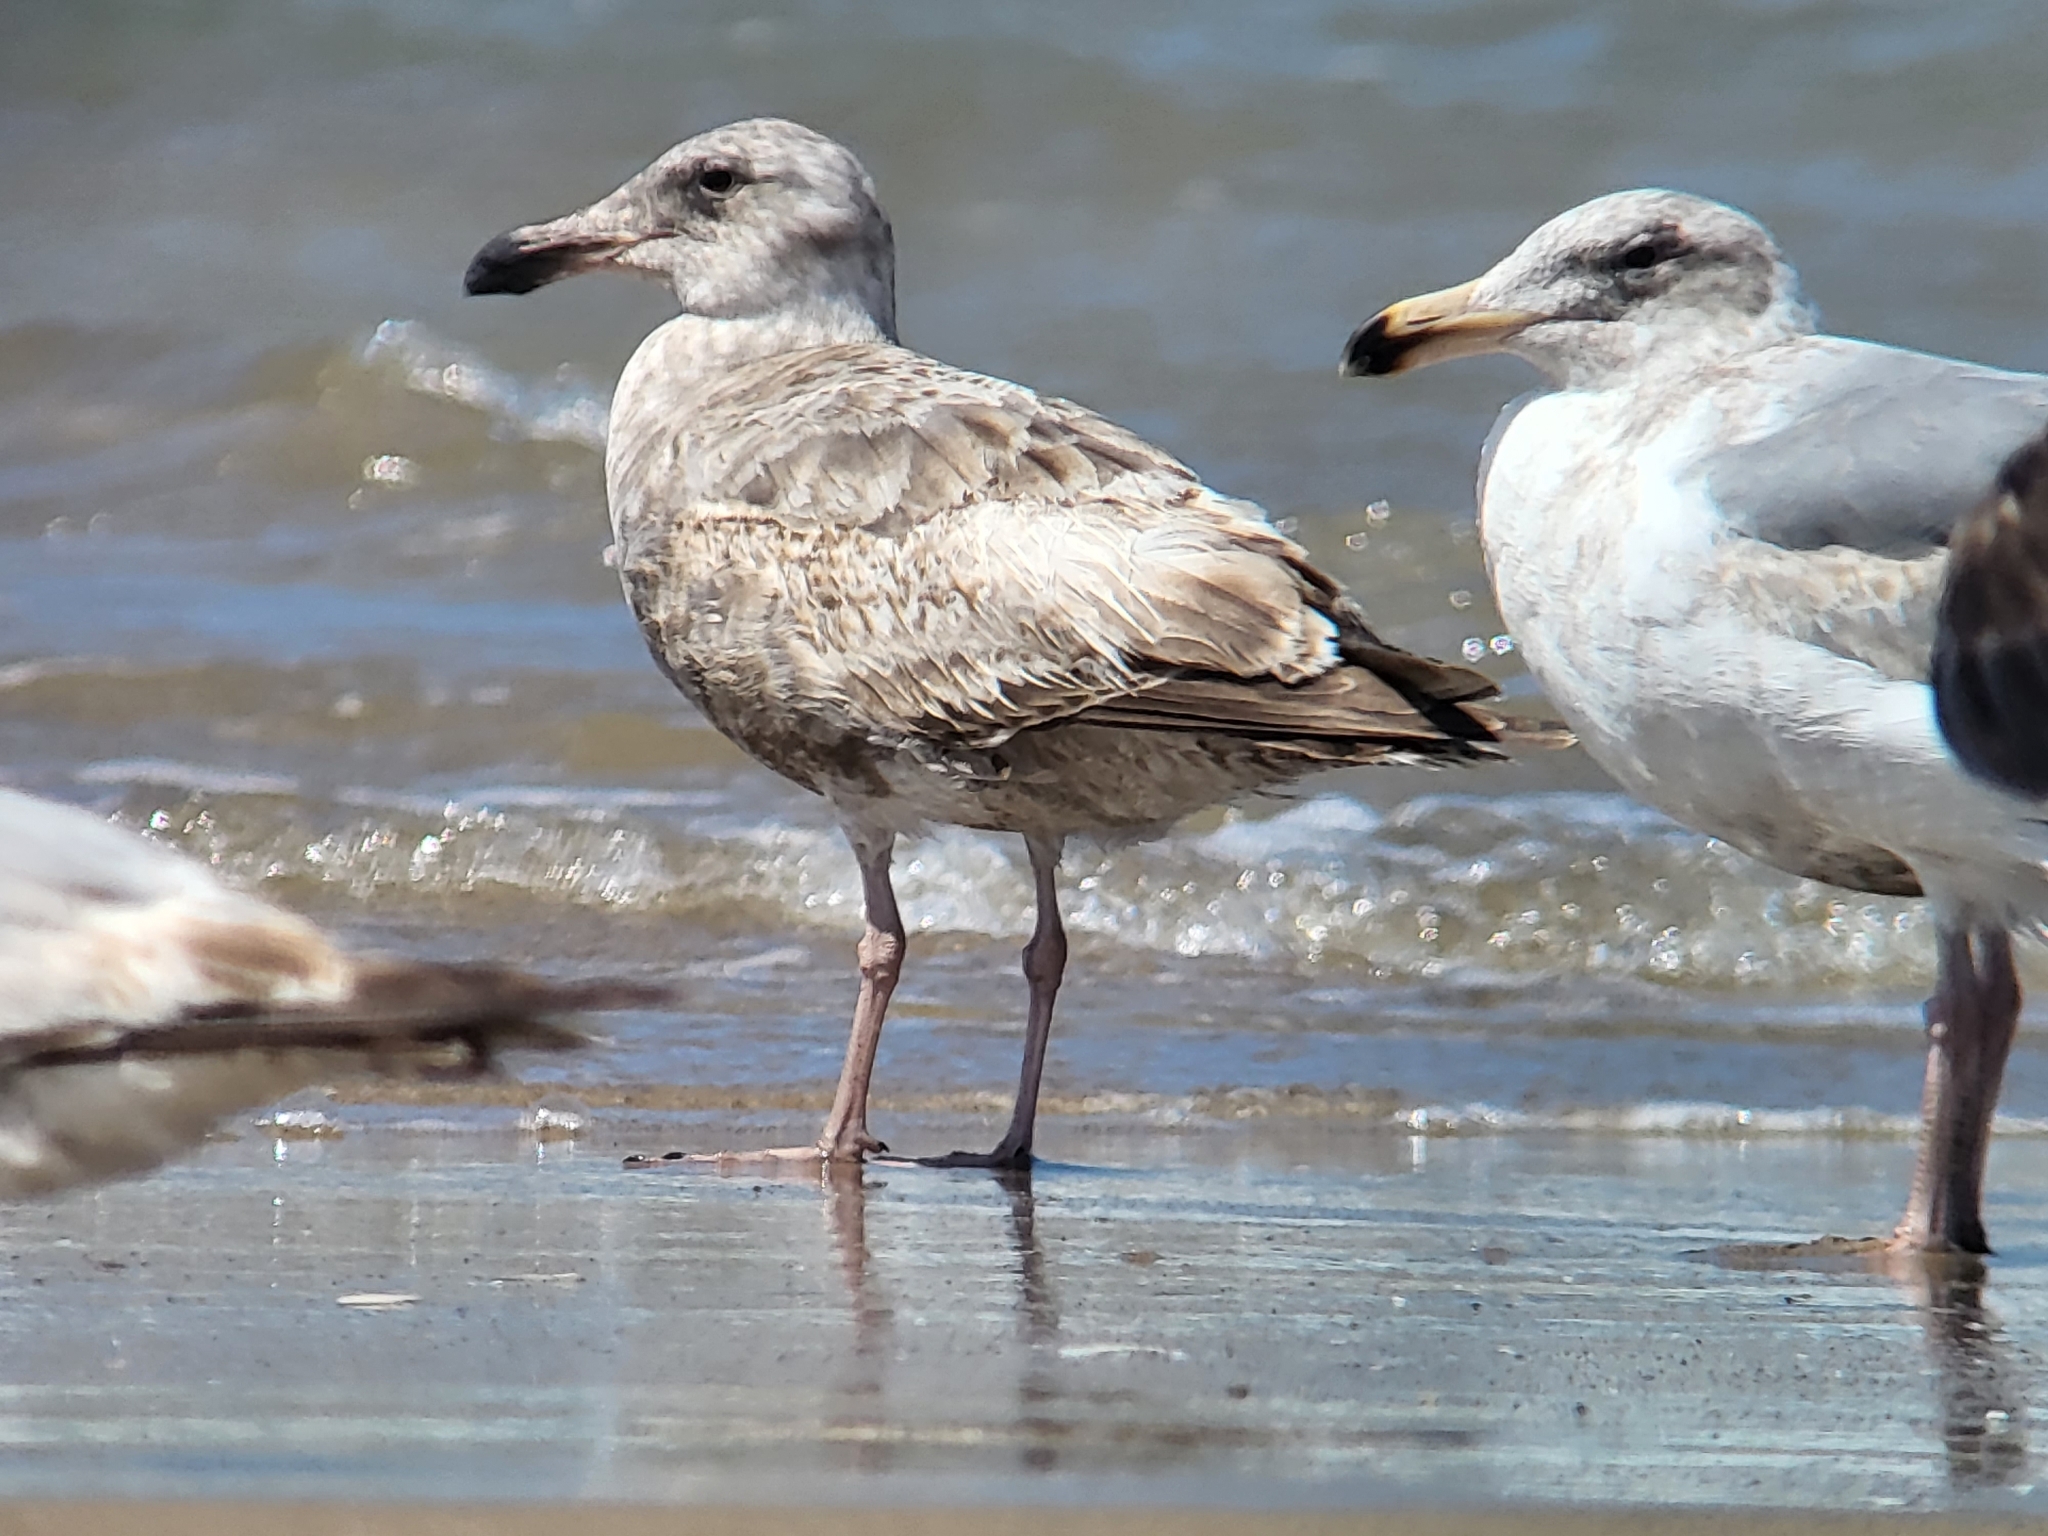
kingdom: Animalia
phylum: Chordata
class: Aves
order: Charadriiformes
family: Laridae
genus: Larus
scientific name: Larus occidentalis
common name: Western gull
